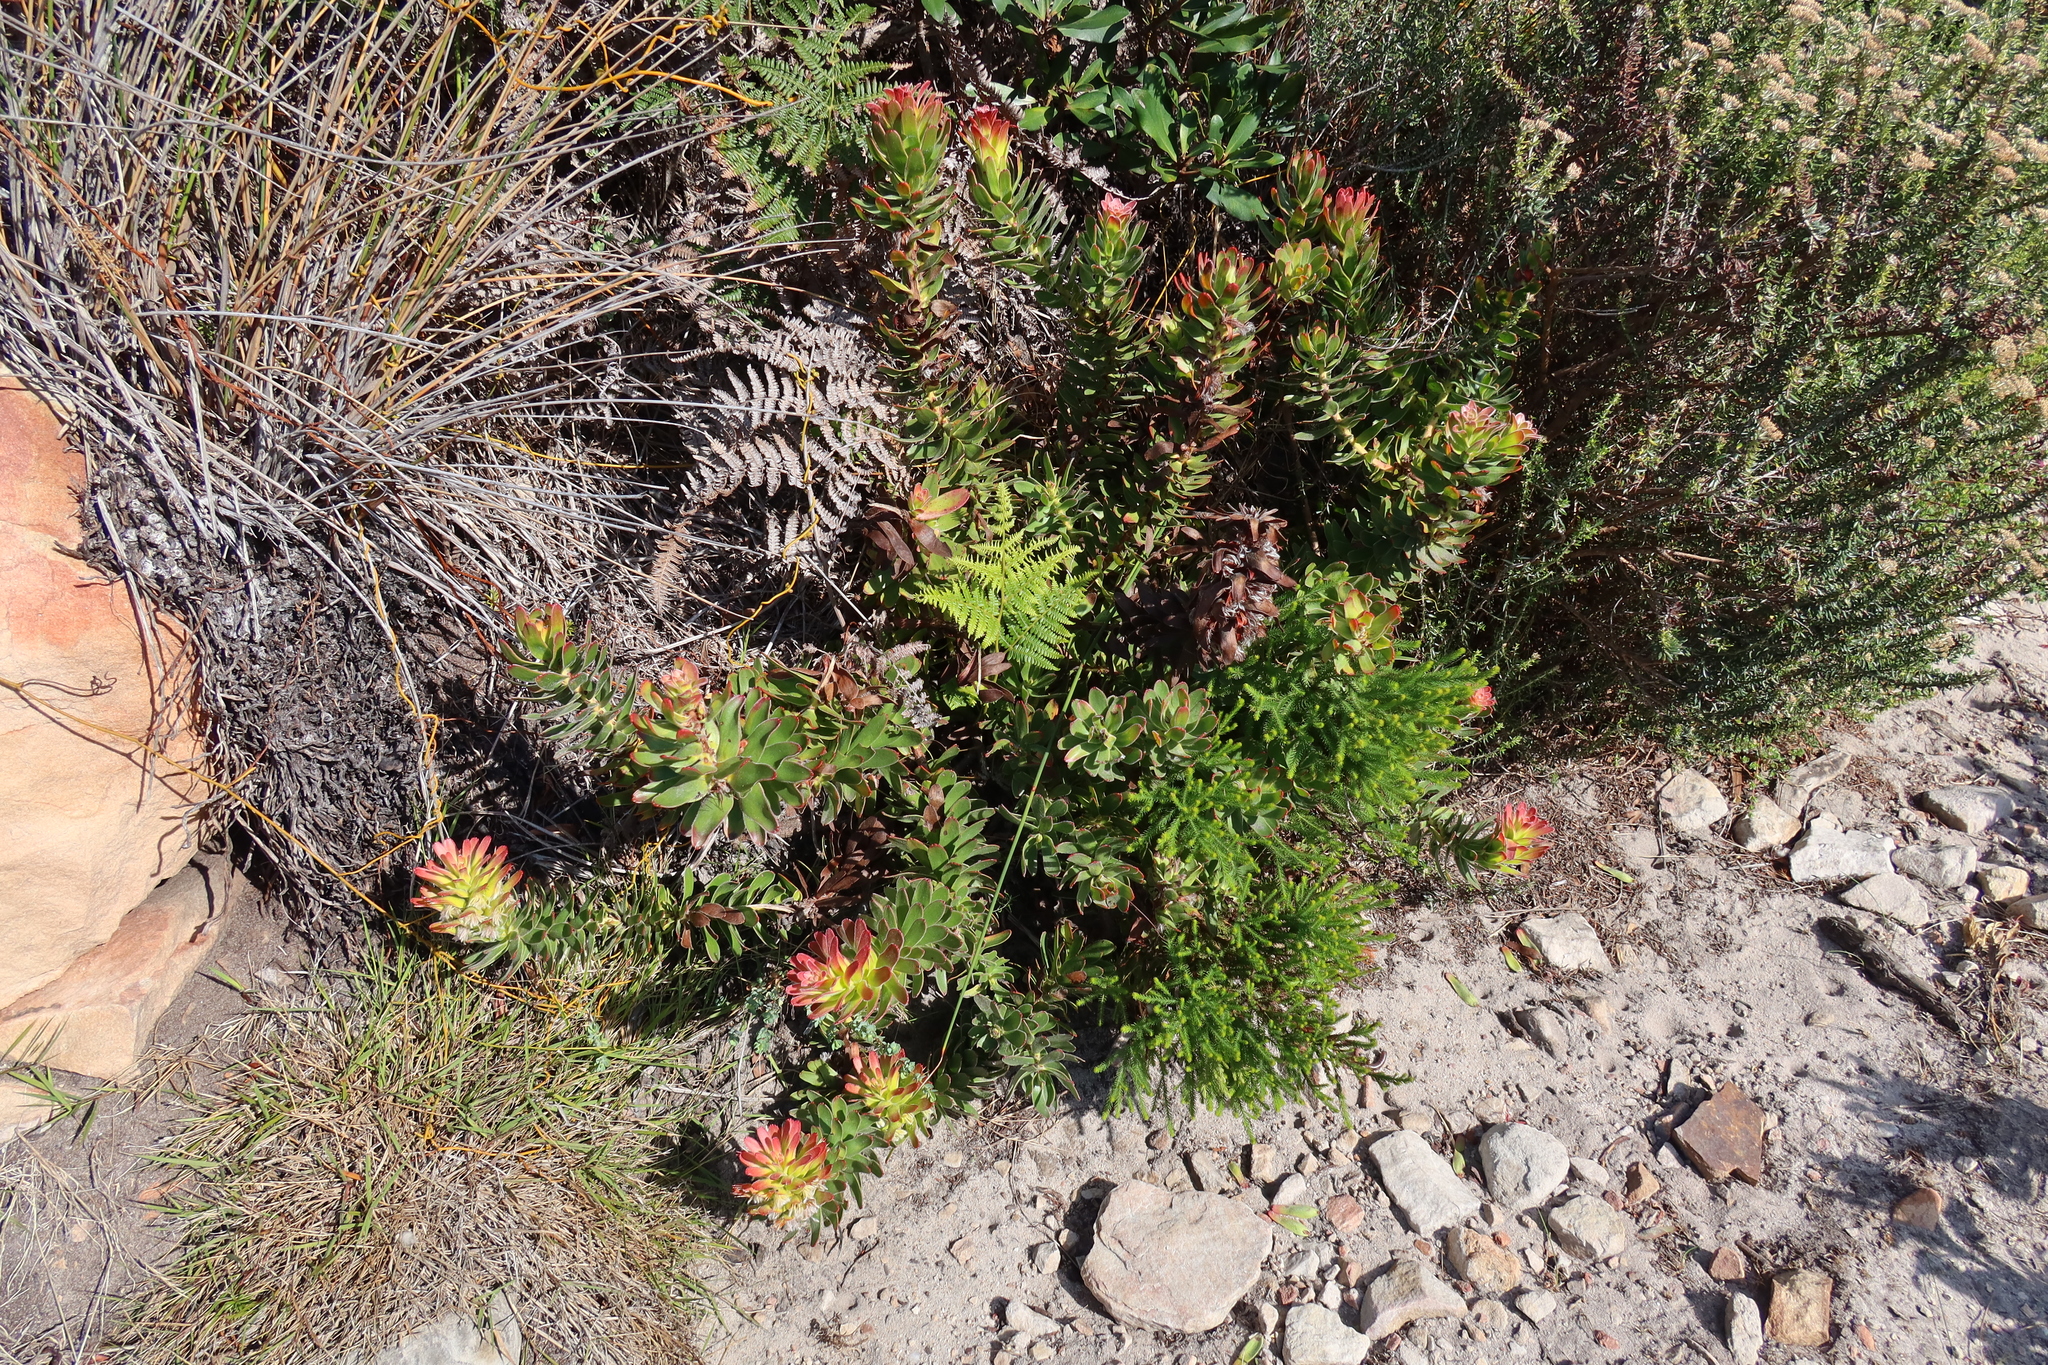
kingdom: Plantae
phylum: Tracheophyta
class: Magnoliopsida
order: Proteales
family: Proteaceae
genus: Mimetes
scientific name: Mimetes cucullatus
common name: Common pagoda
